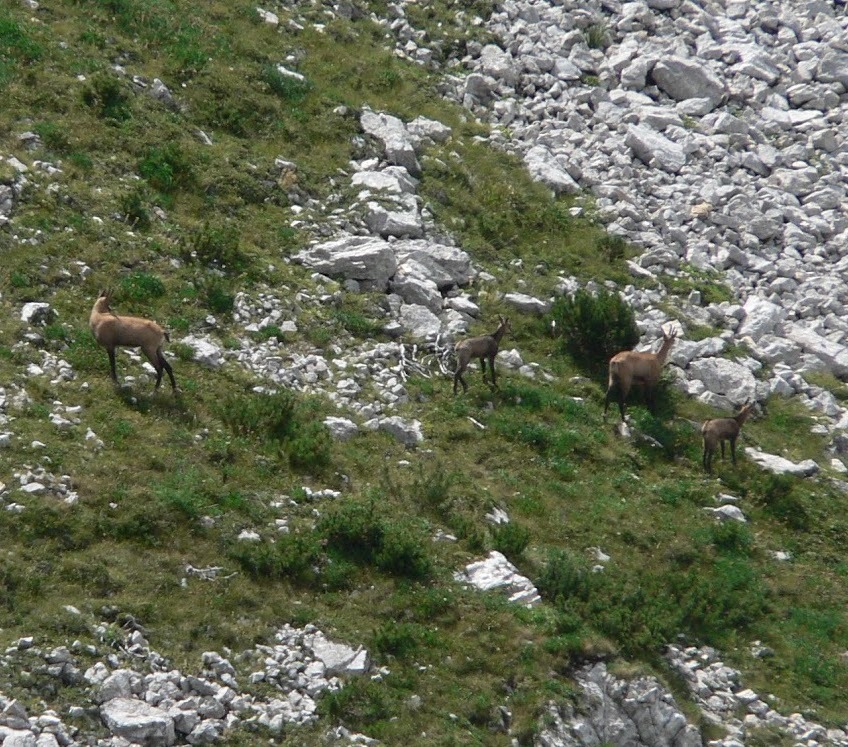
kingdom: Animalia
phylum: Chordata
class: Mammalia
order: Artiodactyla
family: Bovidae
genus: Rupicapra
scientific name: Rupicapra rupicapra
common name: Chamois
